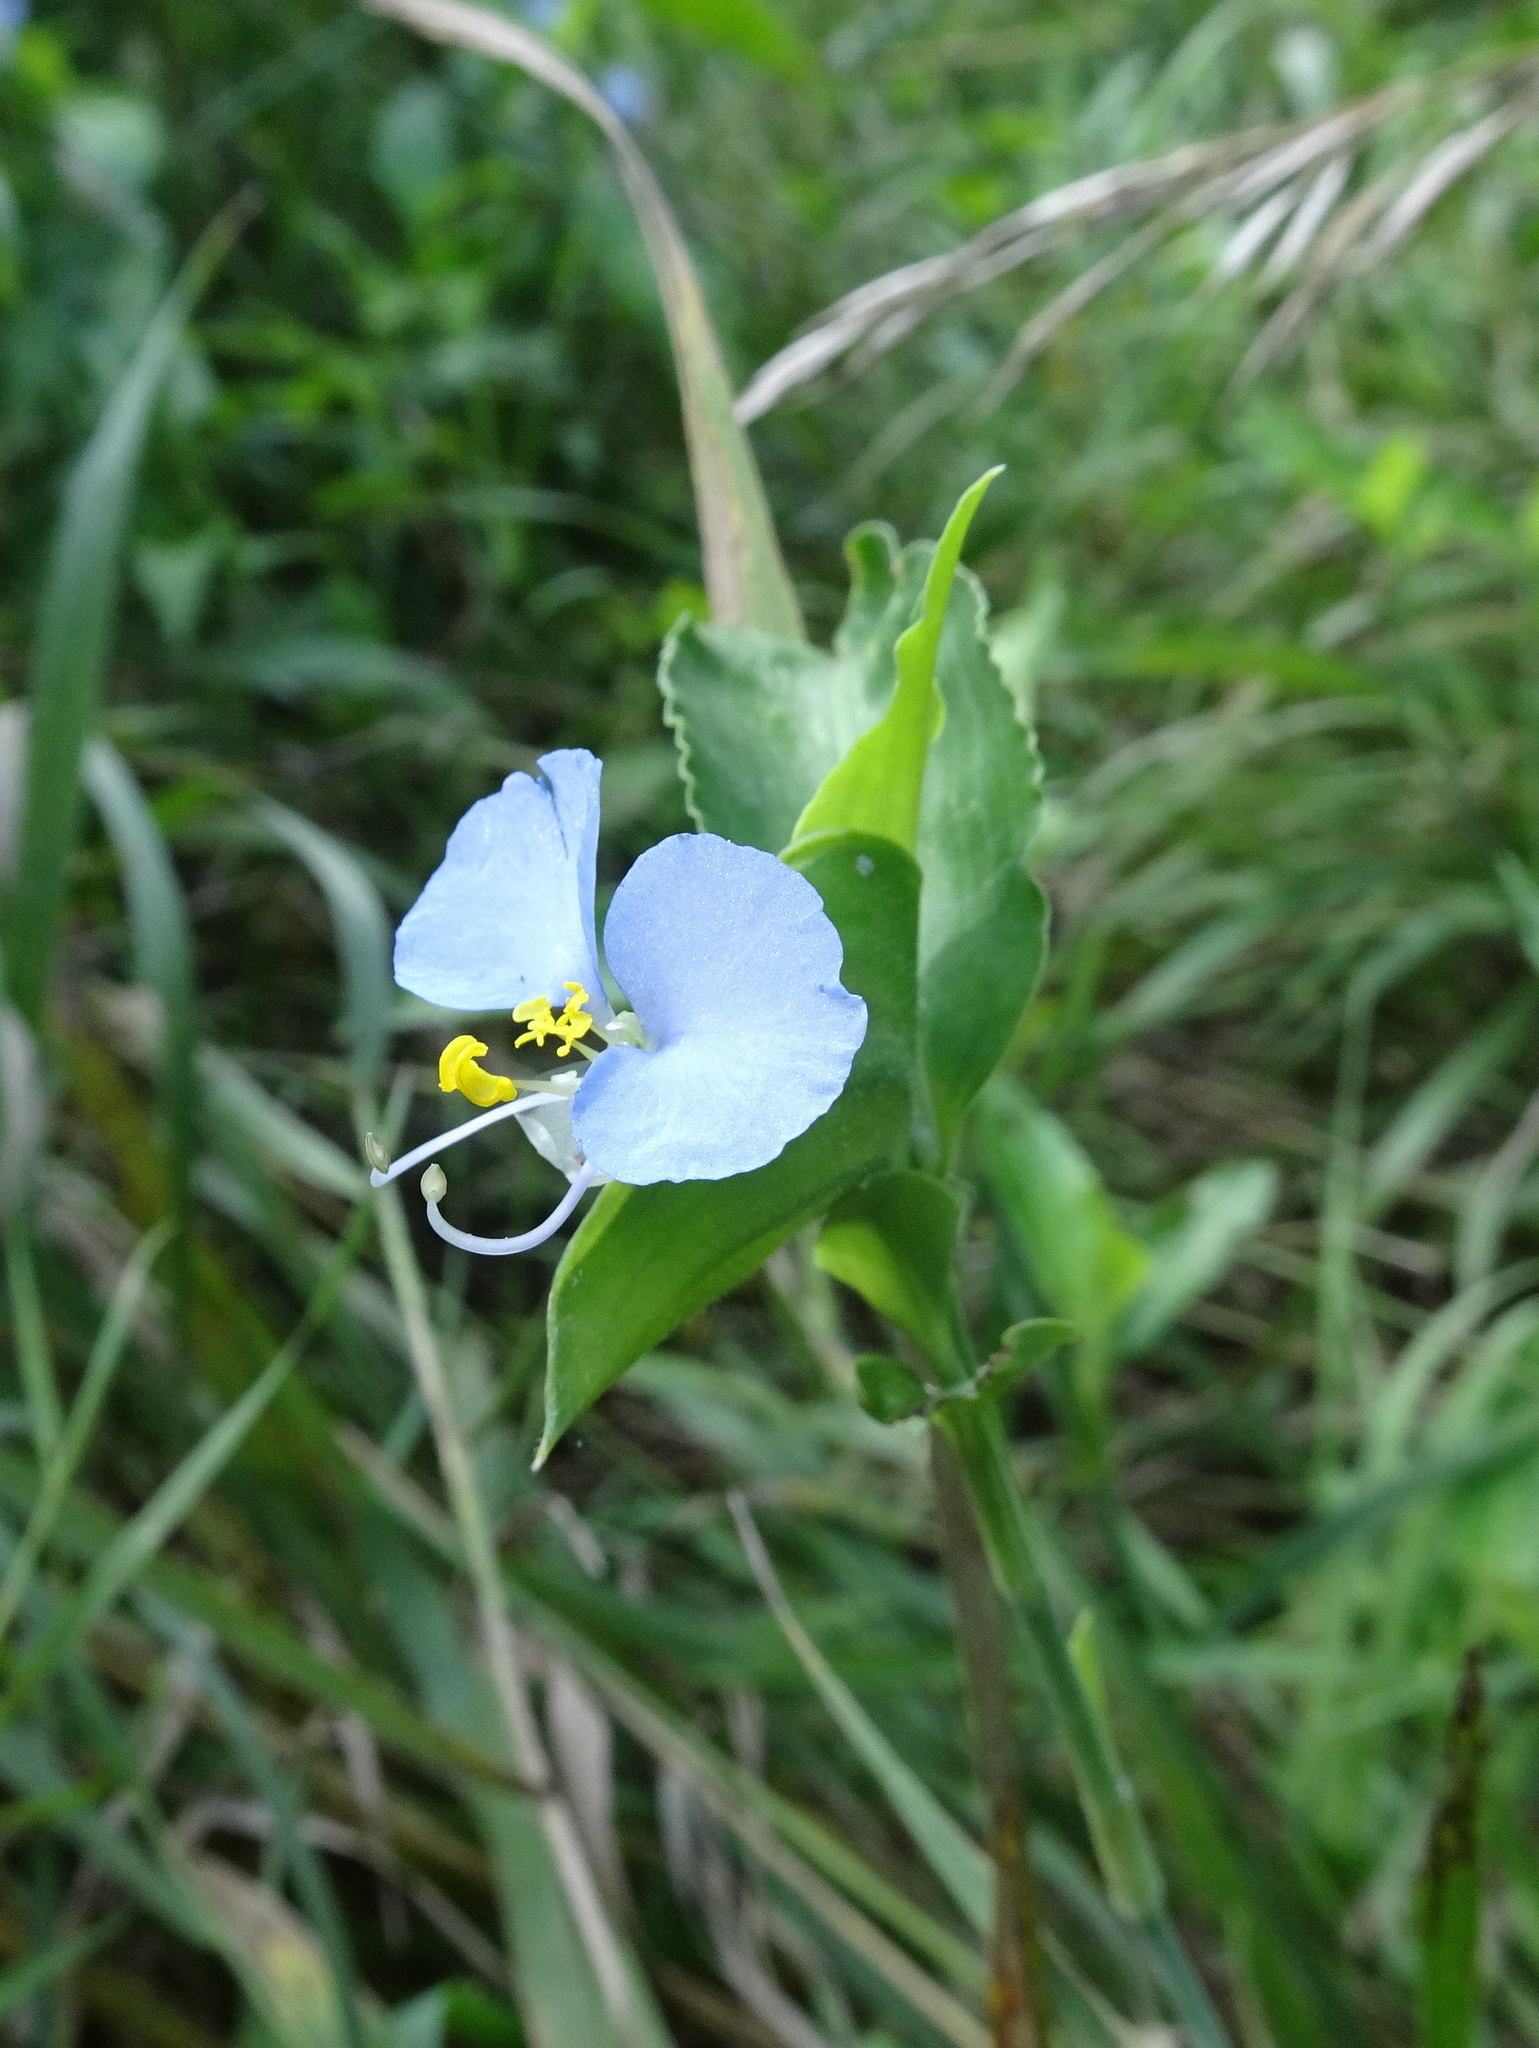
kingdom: Plantae
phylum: Tracheophyta
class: Liliopsida
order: Commelinales
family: Commelinaceae
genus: Commelina
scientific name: Commelina erecta
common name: Blousel blommetjie
